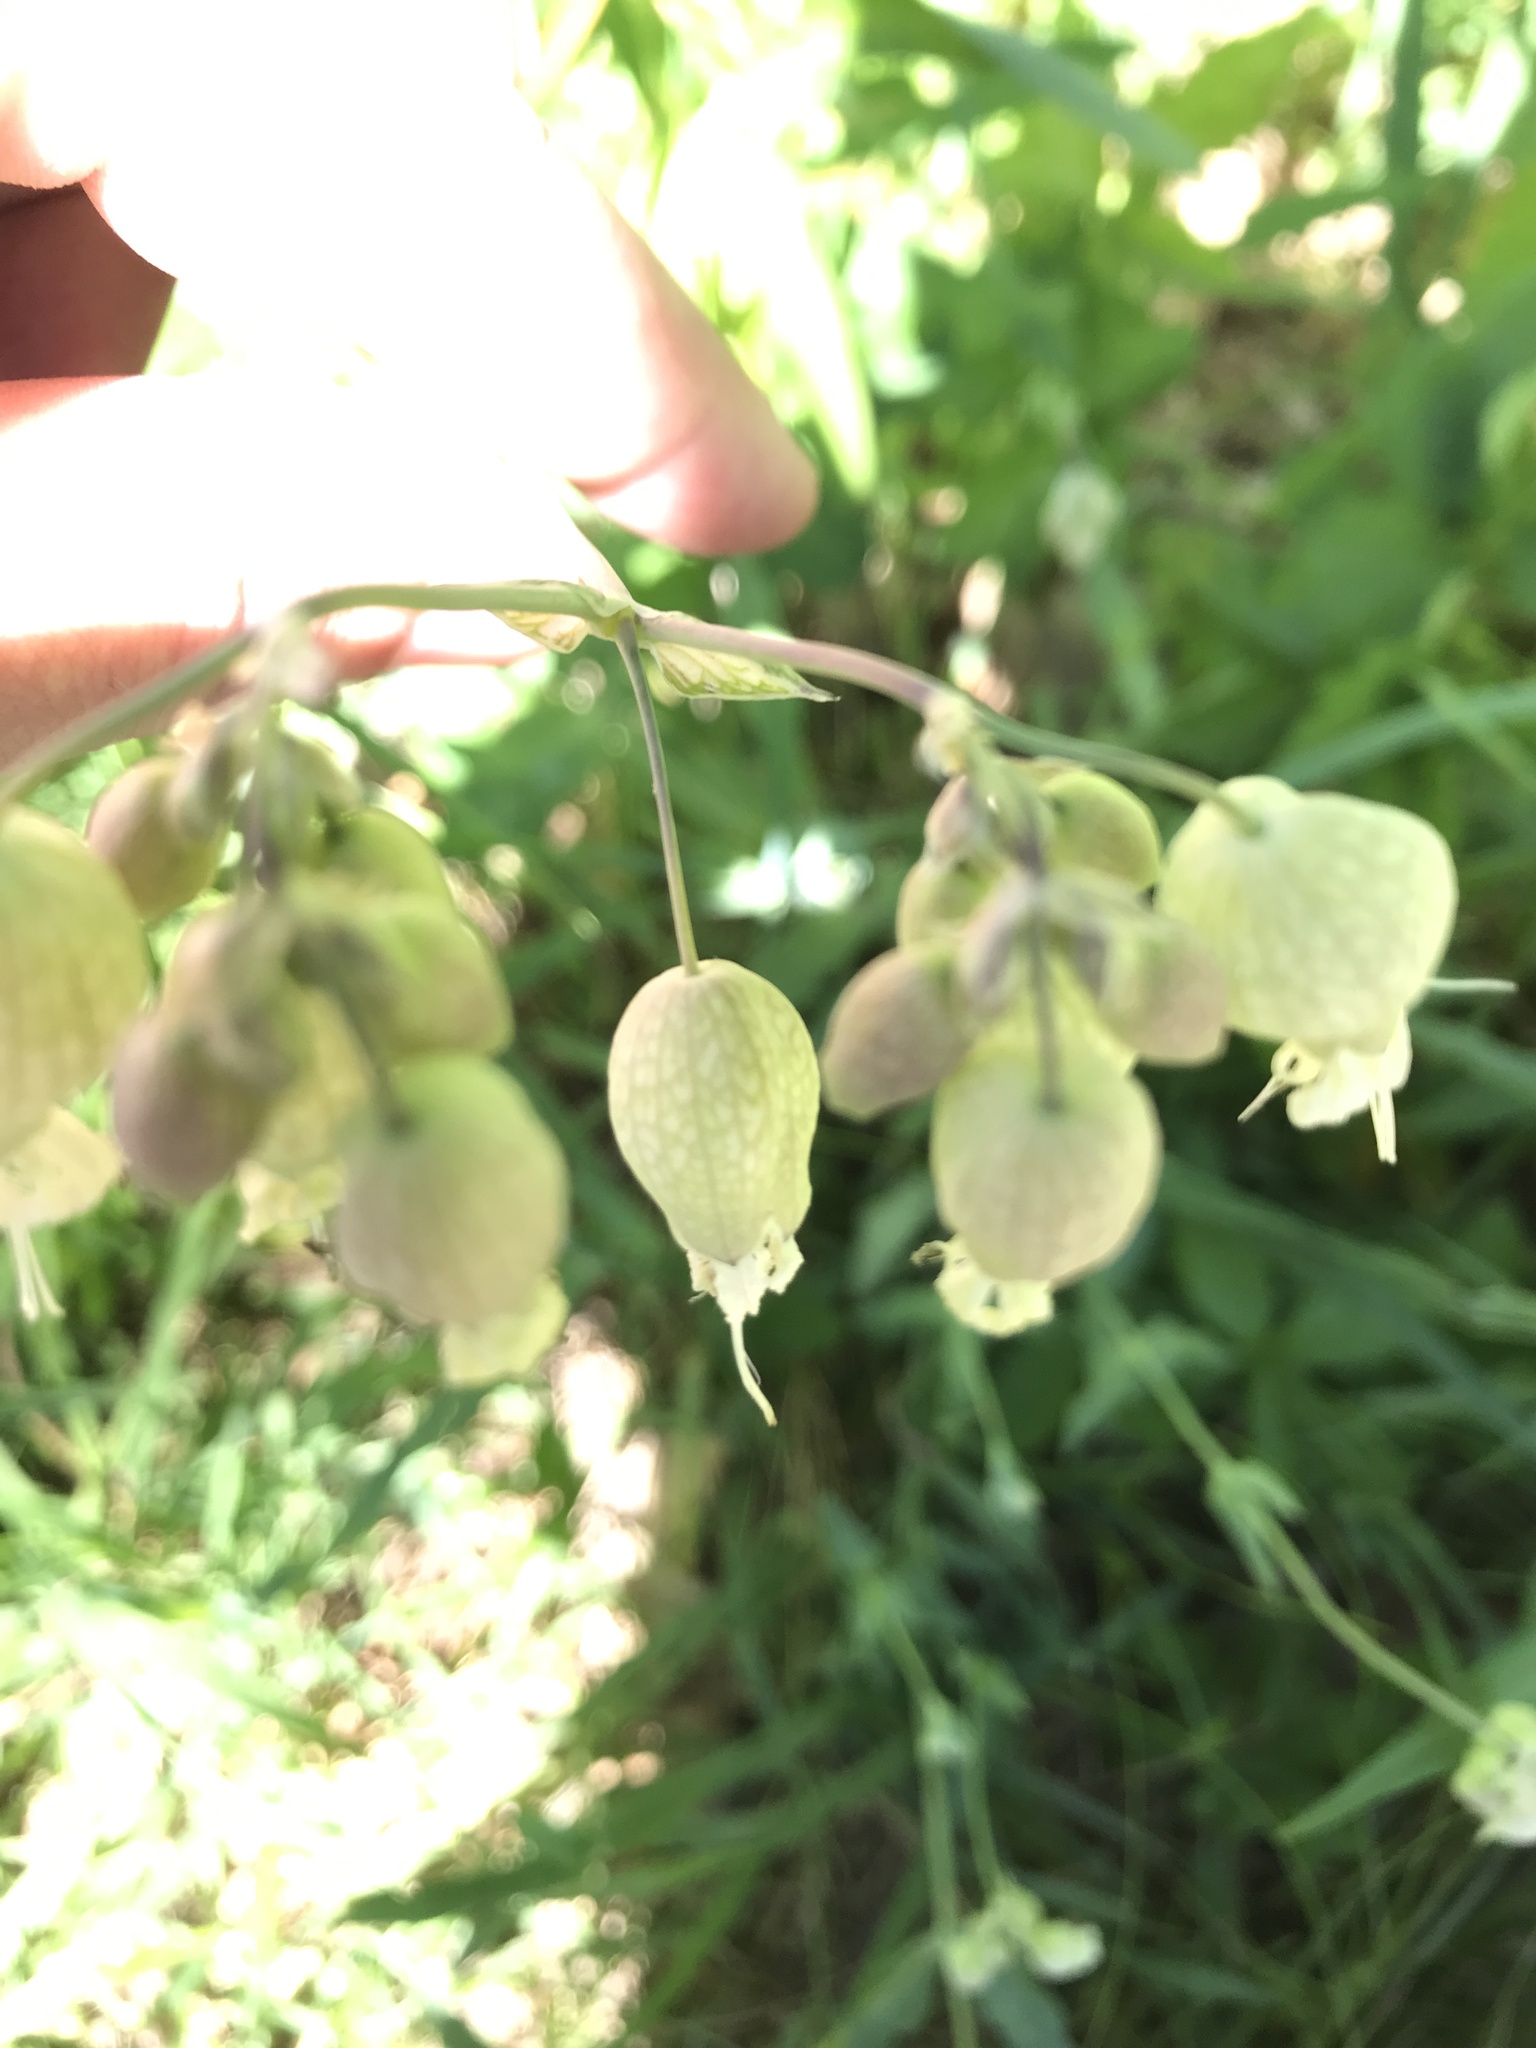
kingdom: Plantae
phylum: Tracheophyta
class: Magnoliopsida
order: Caryophyllales
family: Caryophyllaceae
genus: Silene
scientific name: Silene vulgaris
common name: Bladder campion
